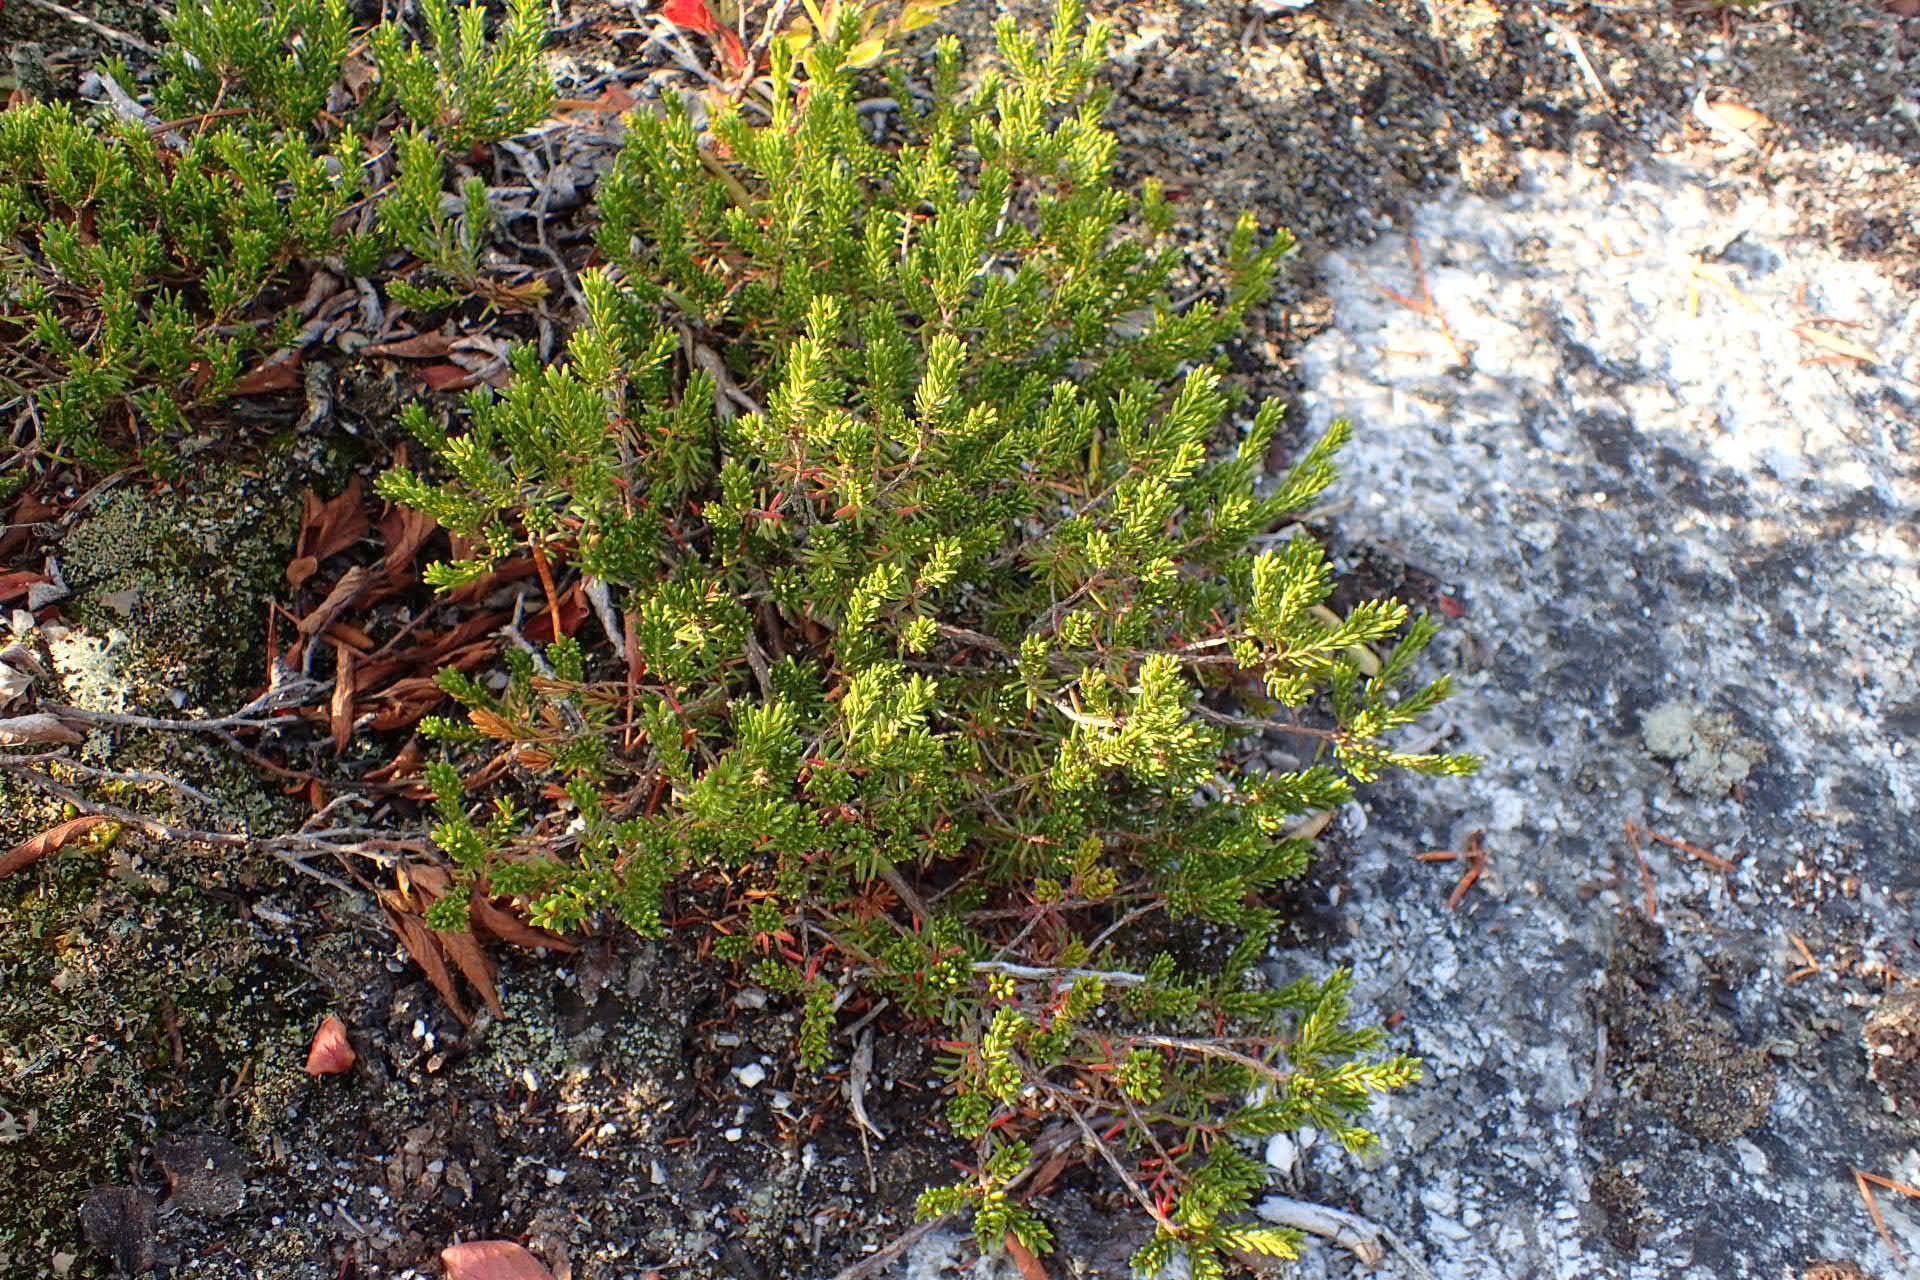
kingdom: Plantae
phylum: Tracheophyta
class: Magnoliopsida
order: Ericales
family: Ericaceae
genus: Corema
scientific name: Corema conradii
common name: Broom-crowberry
